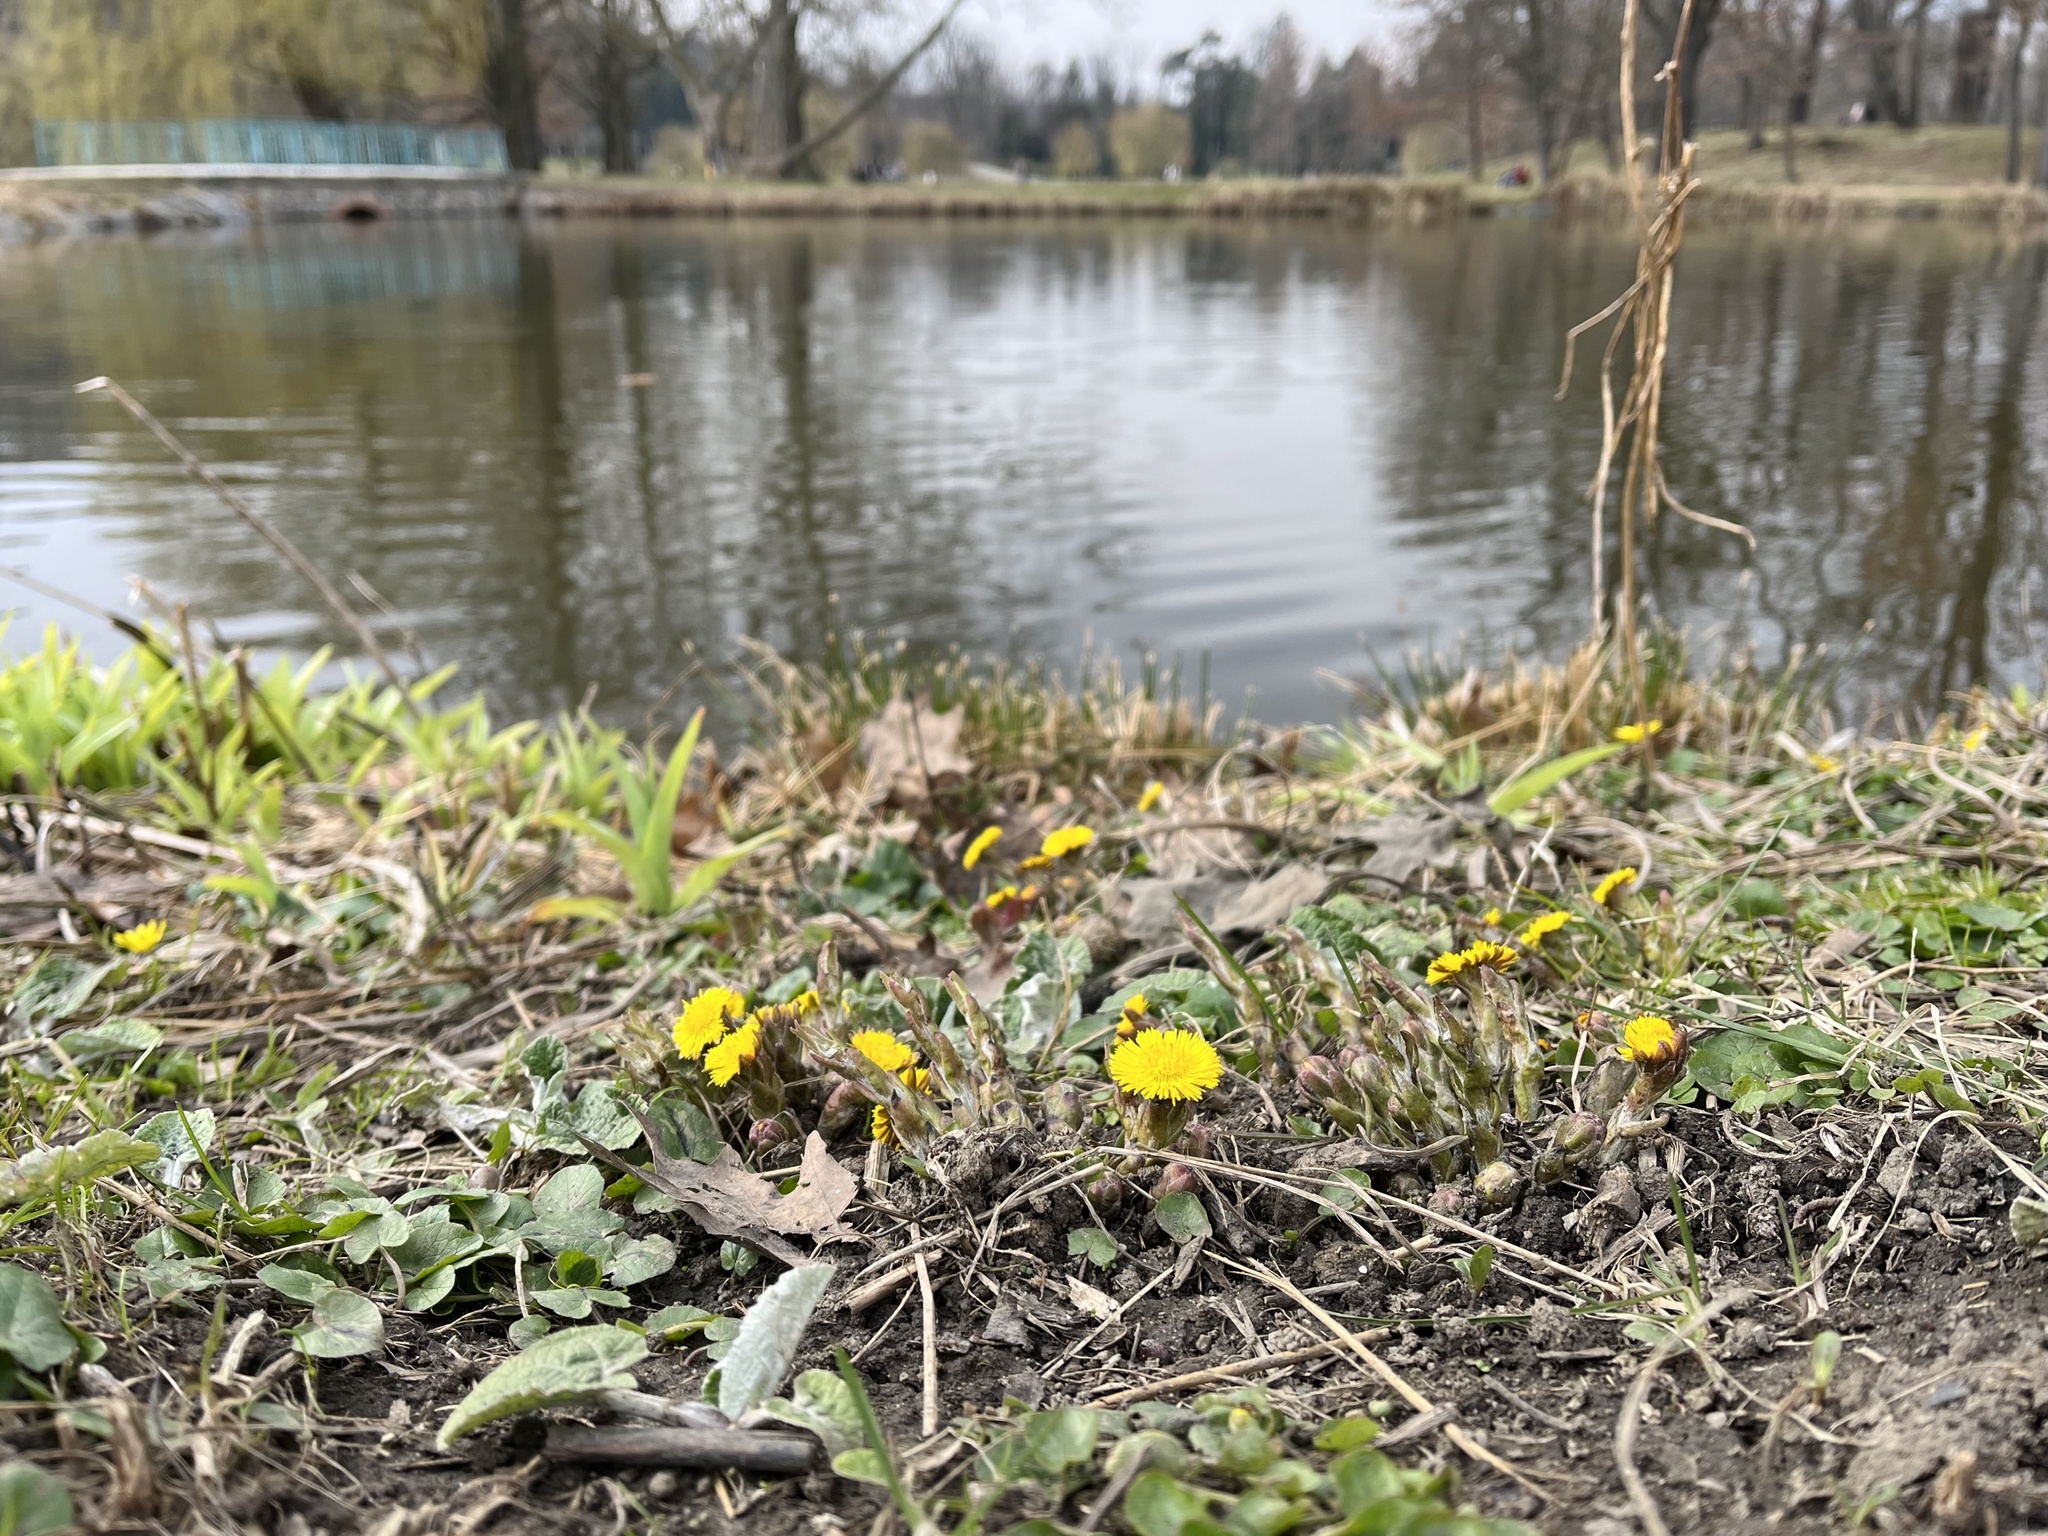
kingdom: Plantae
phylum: Tracheophyta
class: Magnoliopsida
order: Asterales
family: Asteraceae
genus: Tussilago
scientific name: Tussilago farfara
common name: Coltsfoot
